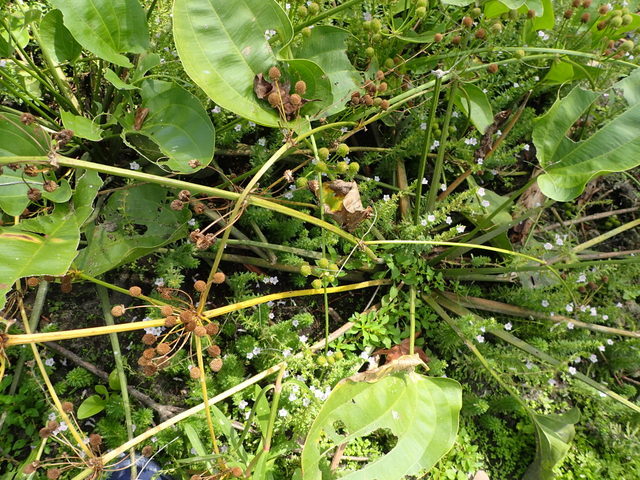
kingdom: Plantae
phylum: Tracheophyta
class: Liliopsida
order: Alismatales
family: Alismataceae
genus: Aquarius
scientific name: Aquarius cordifolius
